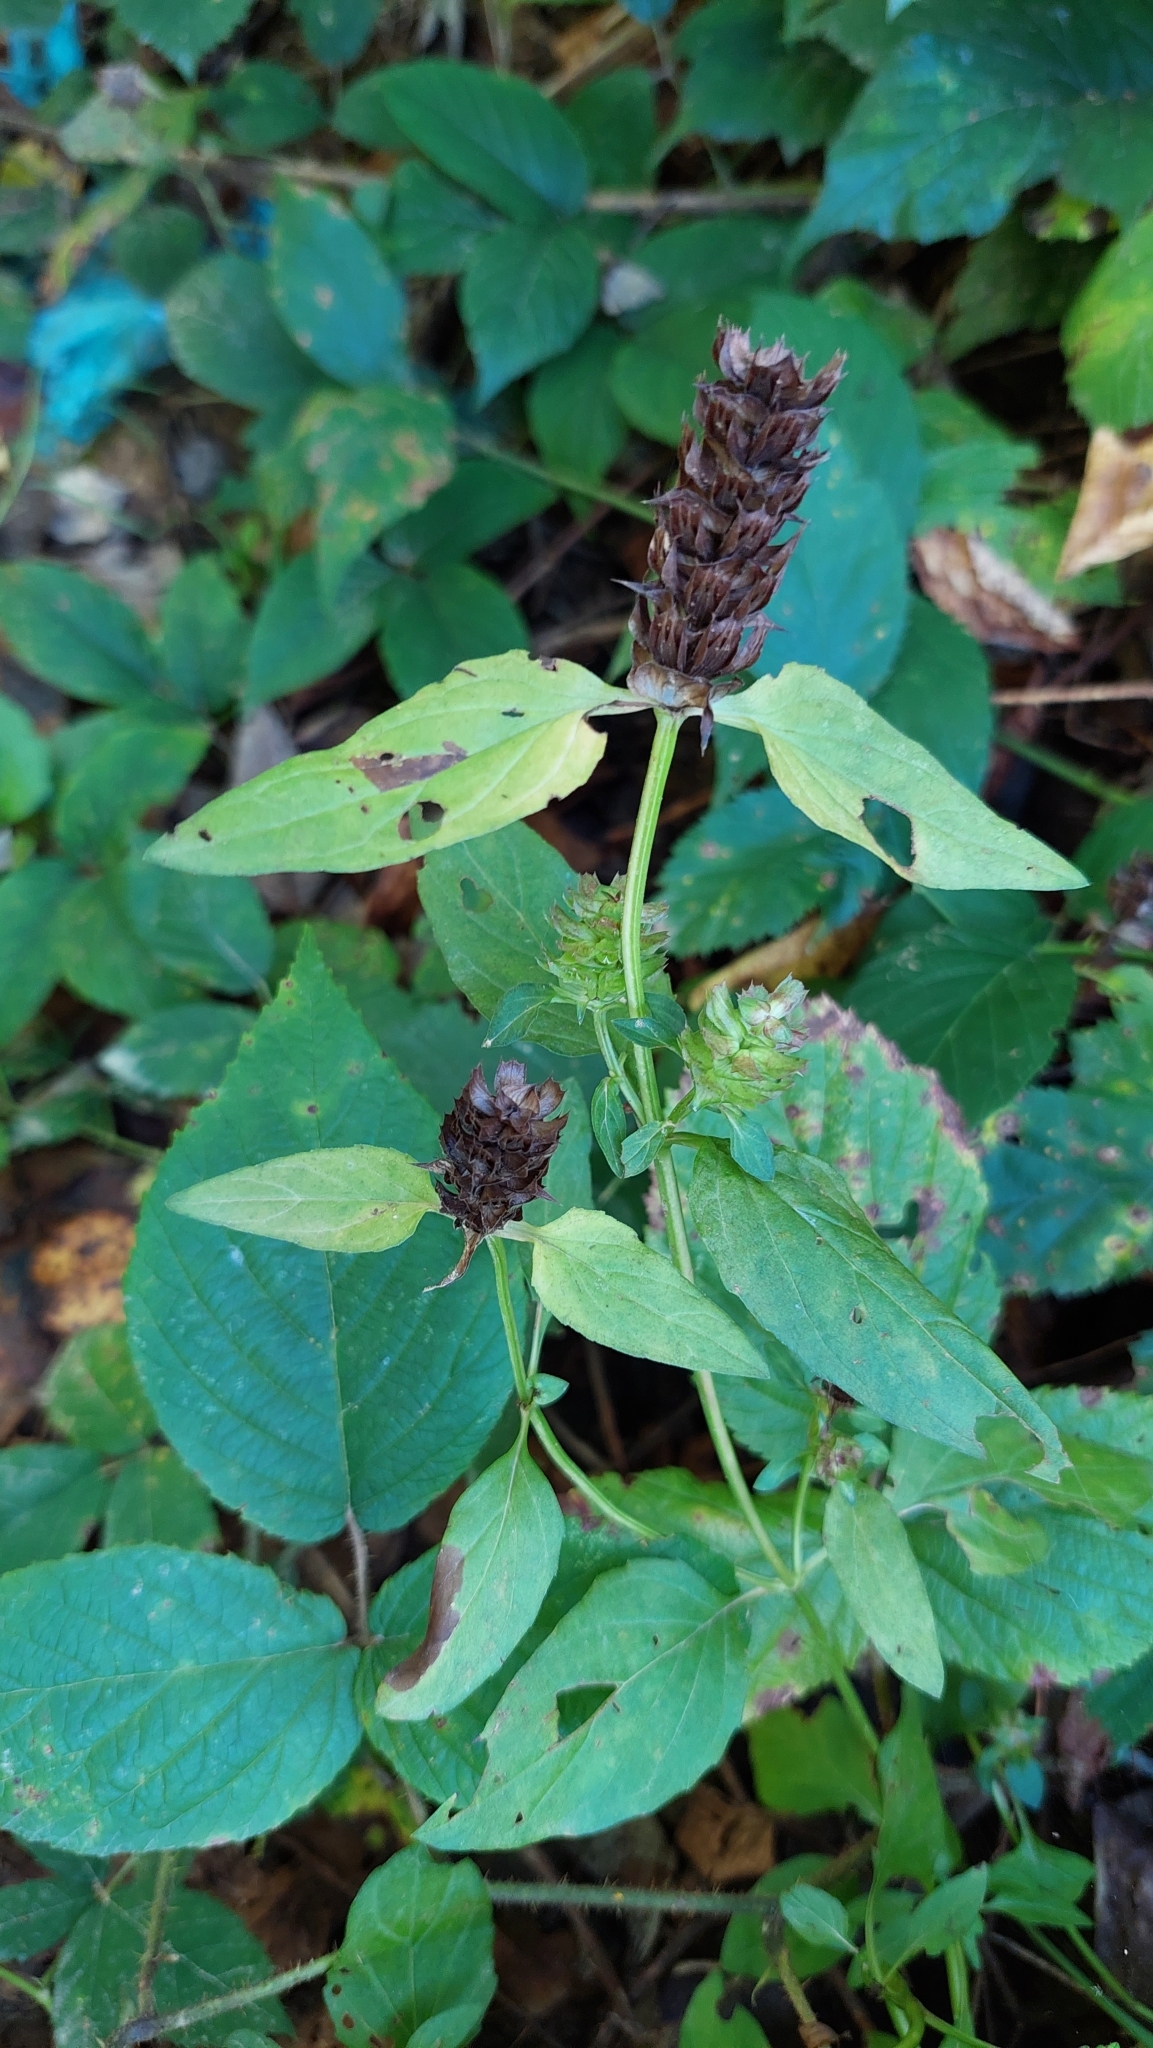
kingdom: Plantae
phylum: Tracheophyta
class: Magnoliopsida
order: Lamiales
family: Lamiaceae
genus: Prunella
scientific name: Prunella vulgaris
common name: Heal-all
